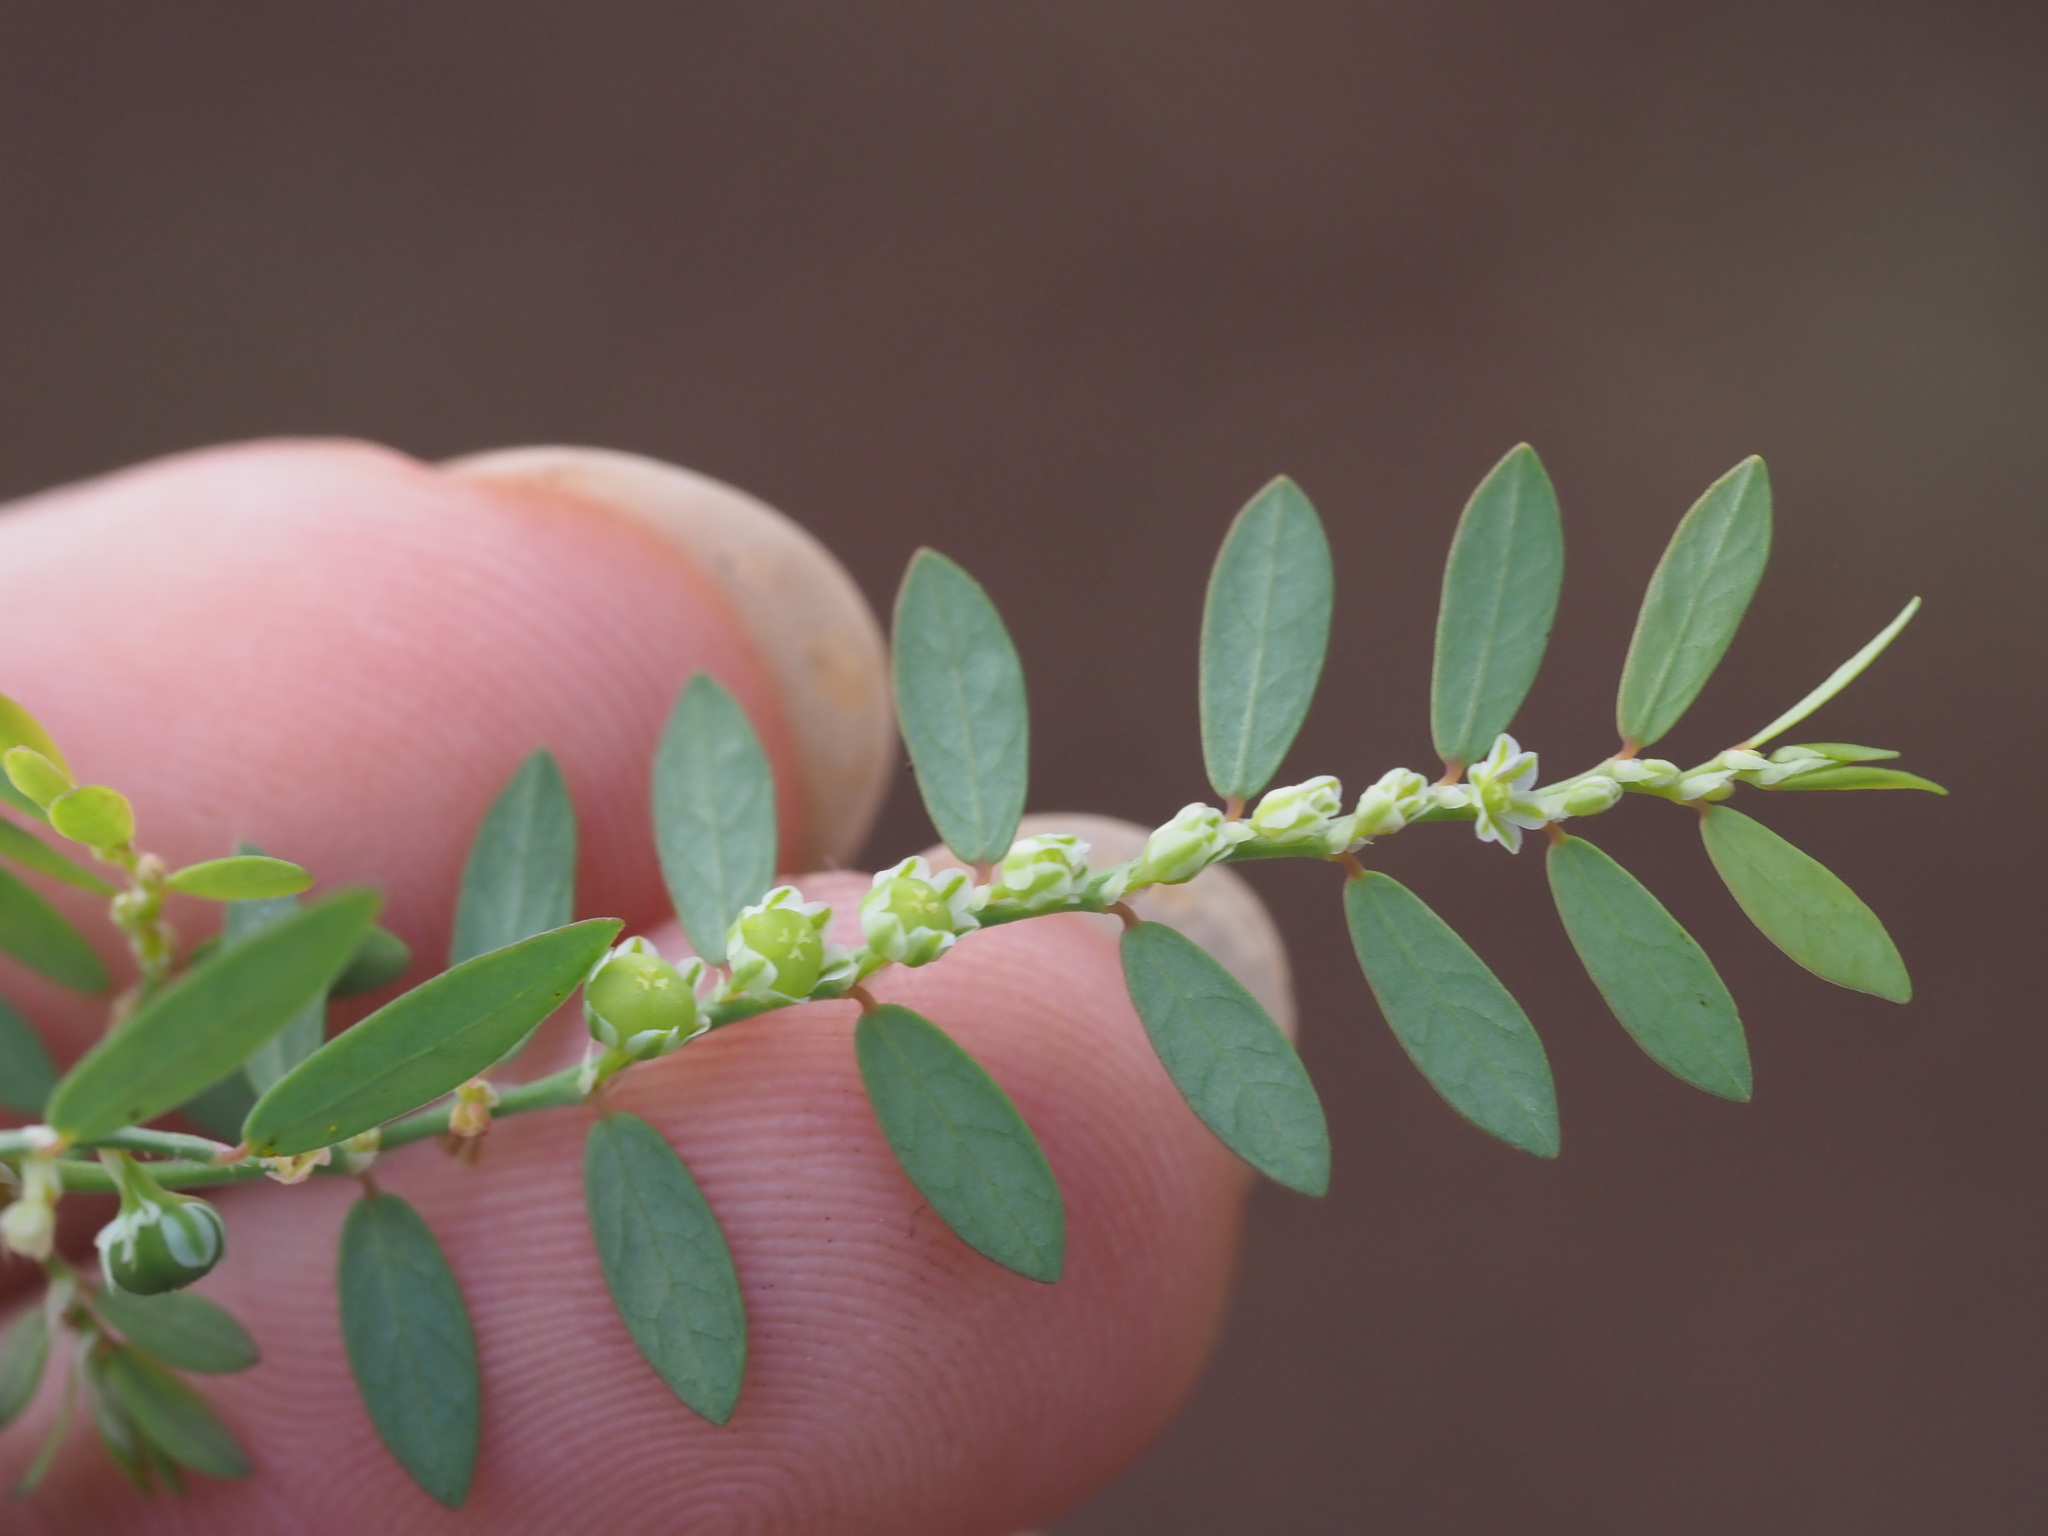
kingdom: Plantae
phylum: Tracheophyta
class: Magnoliopsida
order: Malpighiales
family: Phyllanthaceae
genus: Phyllanthus
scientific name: Phyllanthus debilis
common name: Niruri
